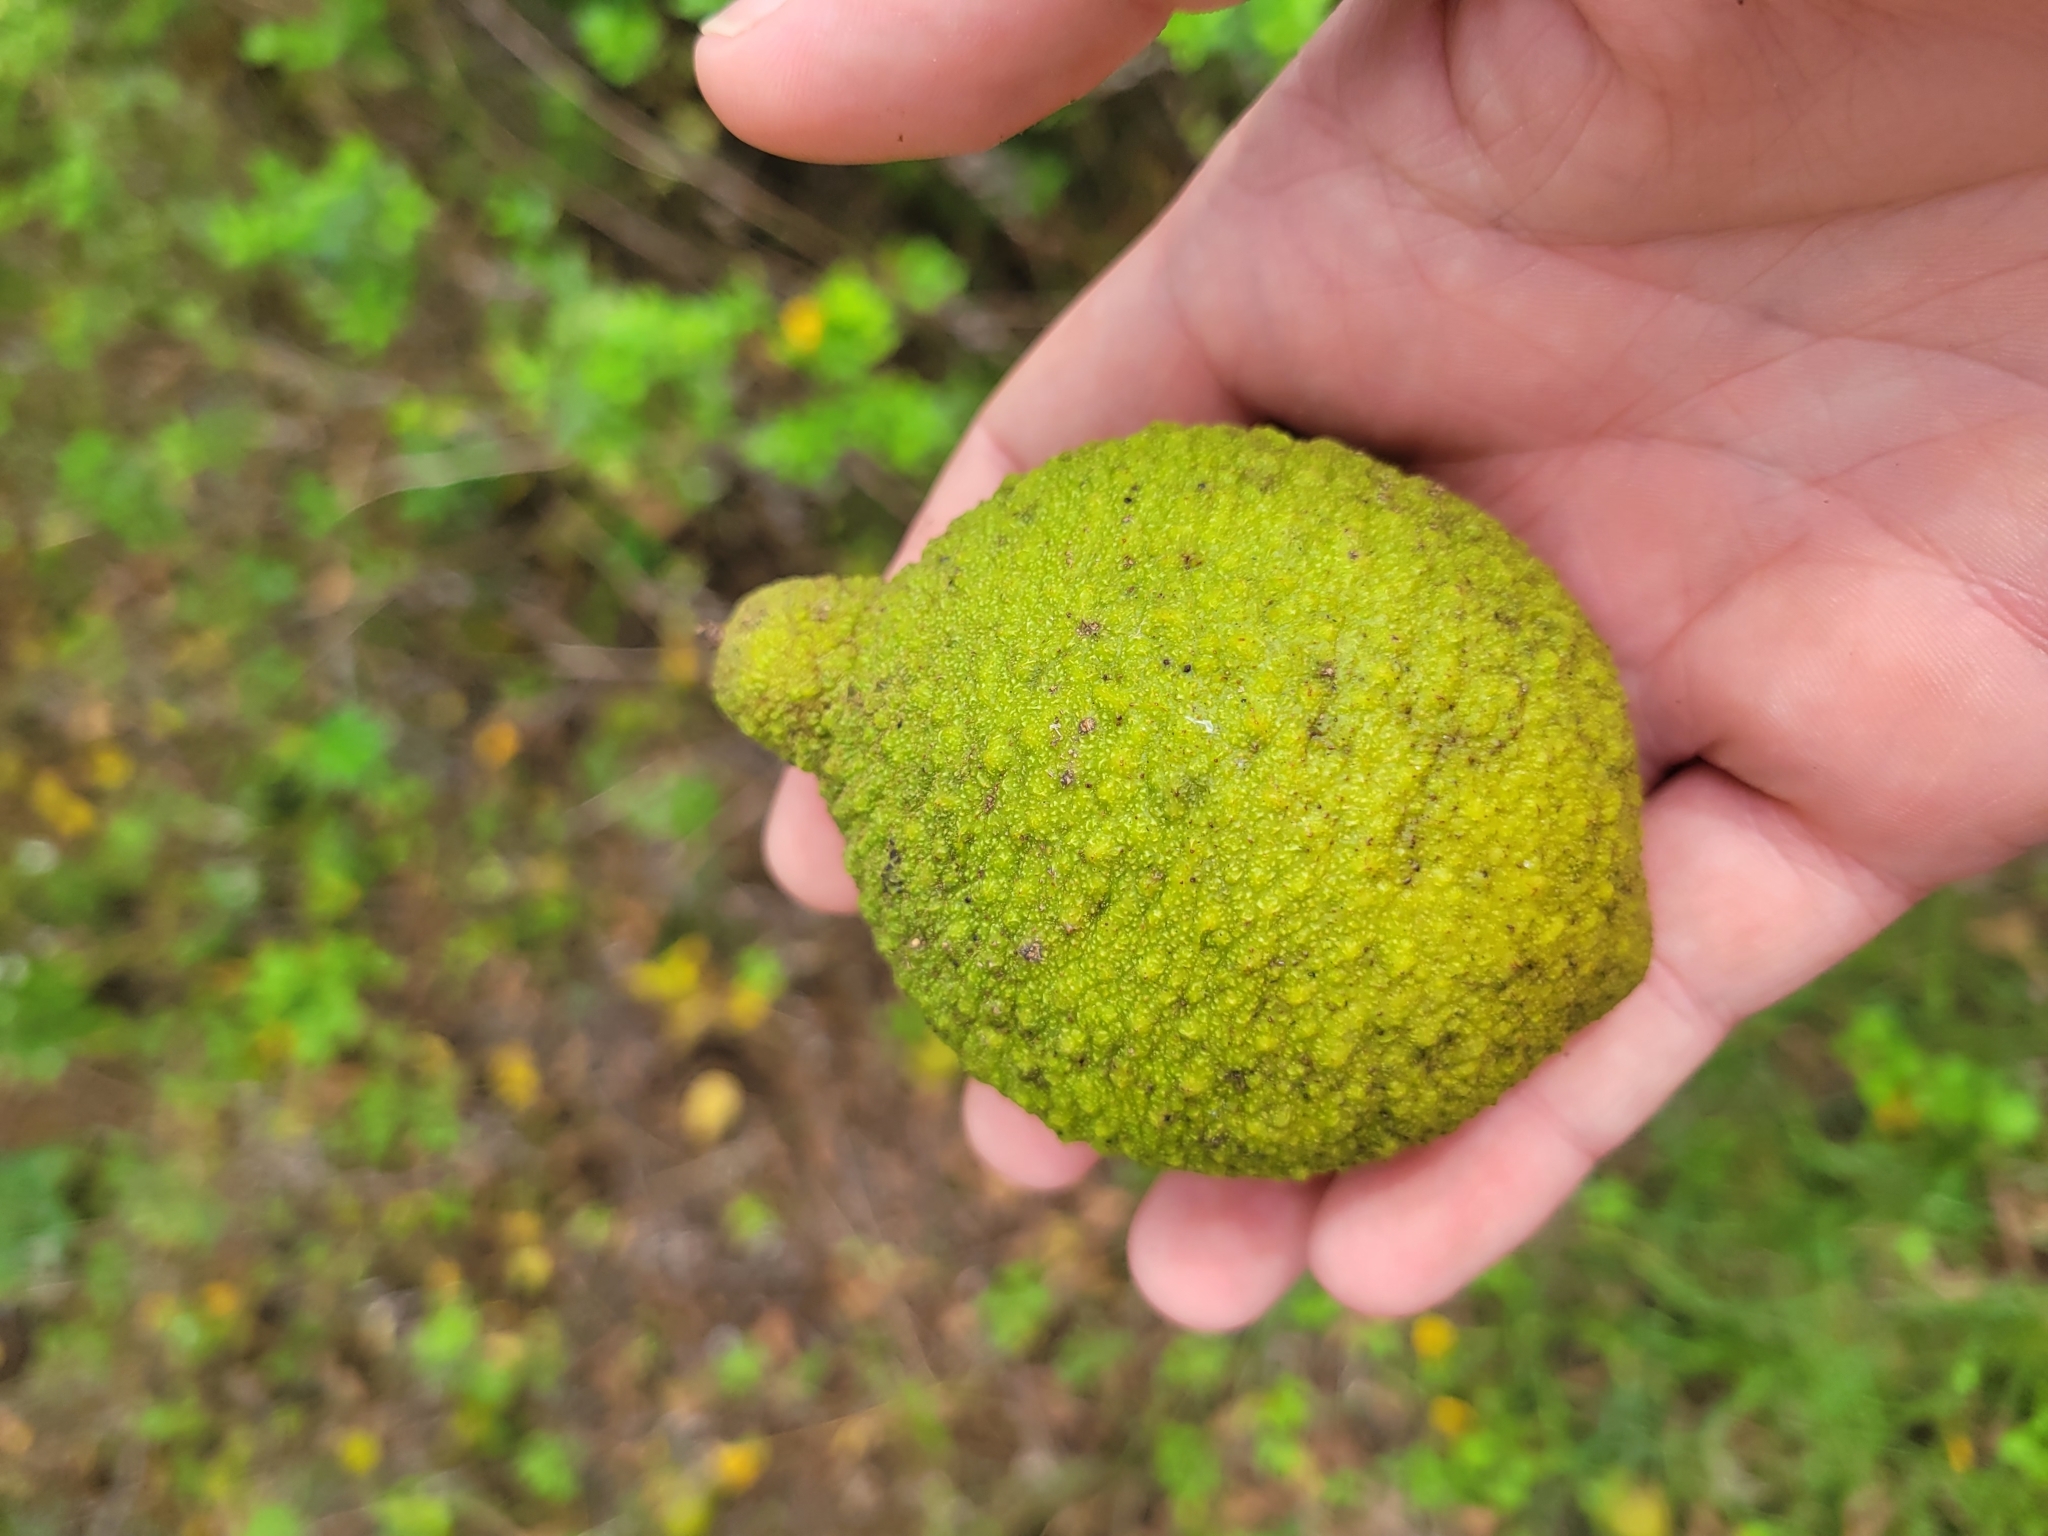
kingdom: Plantae
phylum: Tracheophyta
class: Magnoliopsida
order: Fagales
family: Juglandaceae
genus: Juglans
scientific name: Juglans nigra
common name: Black walnut
